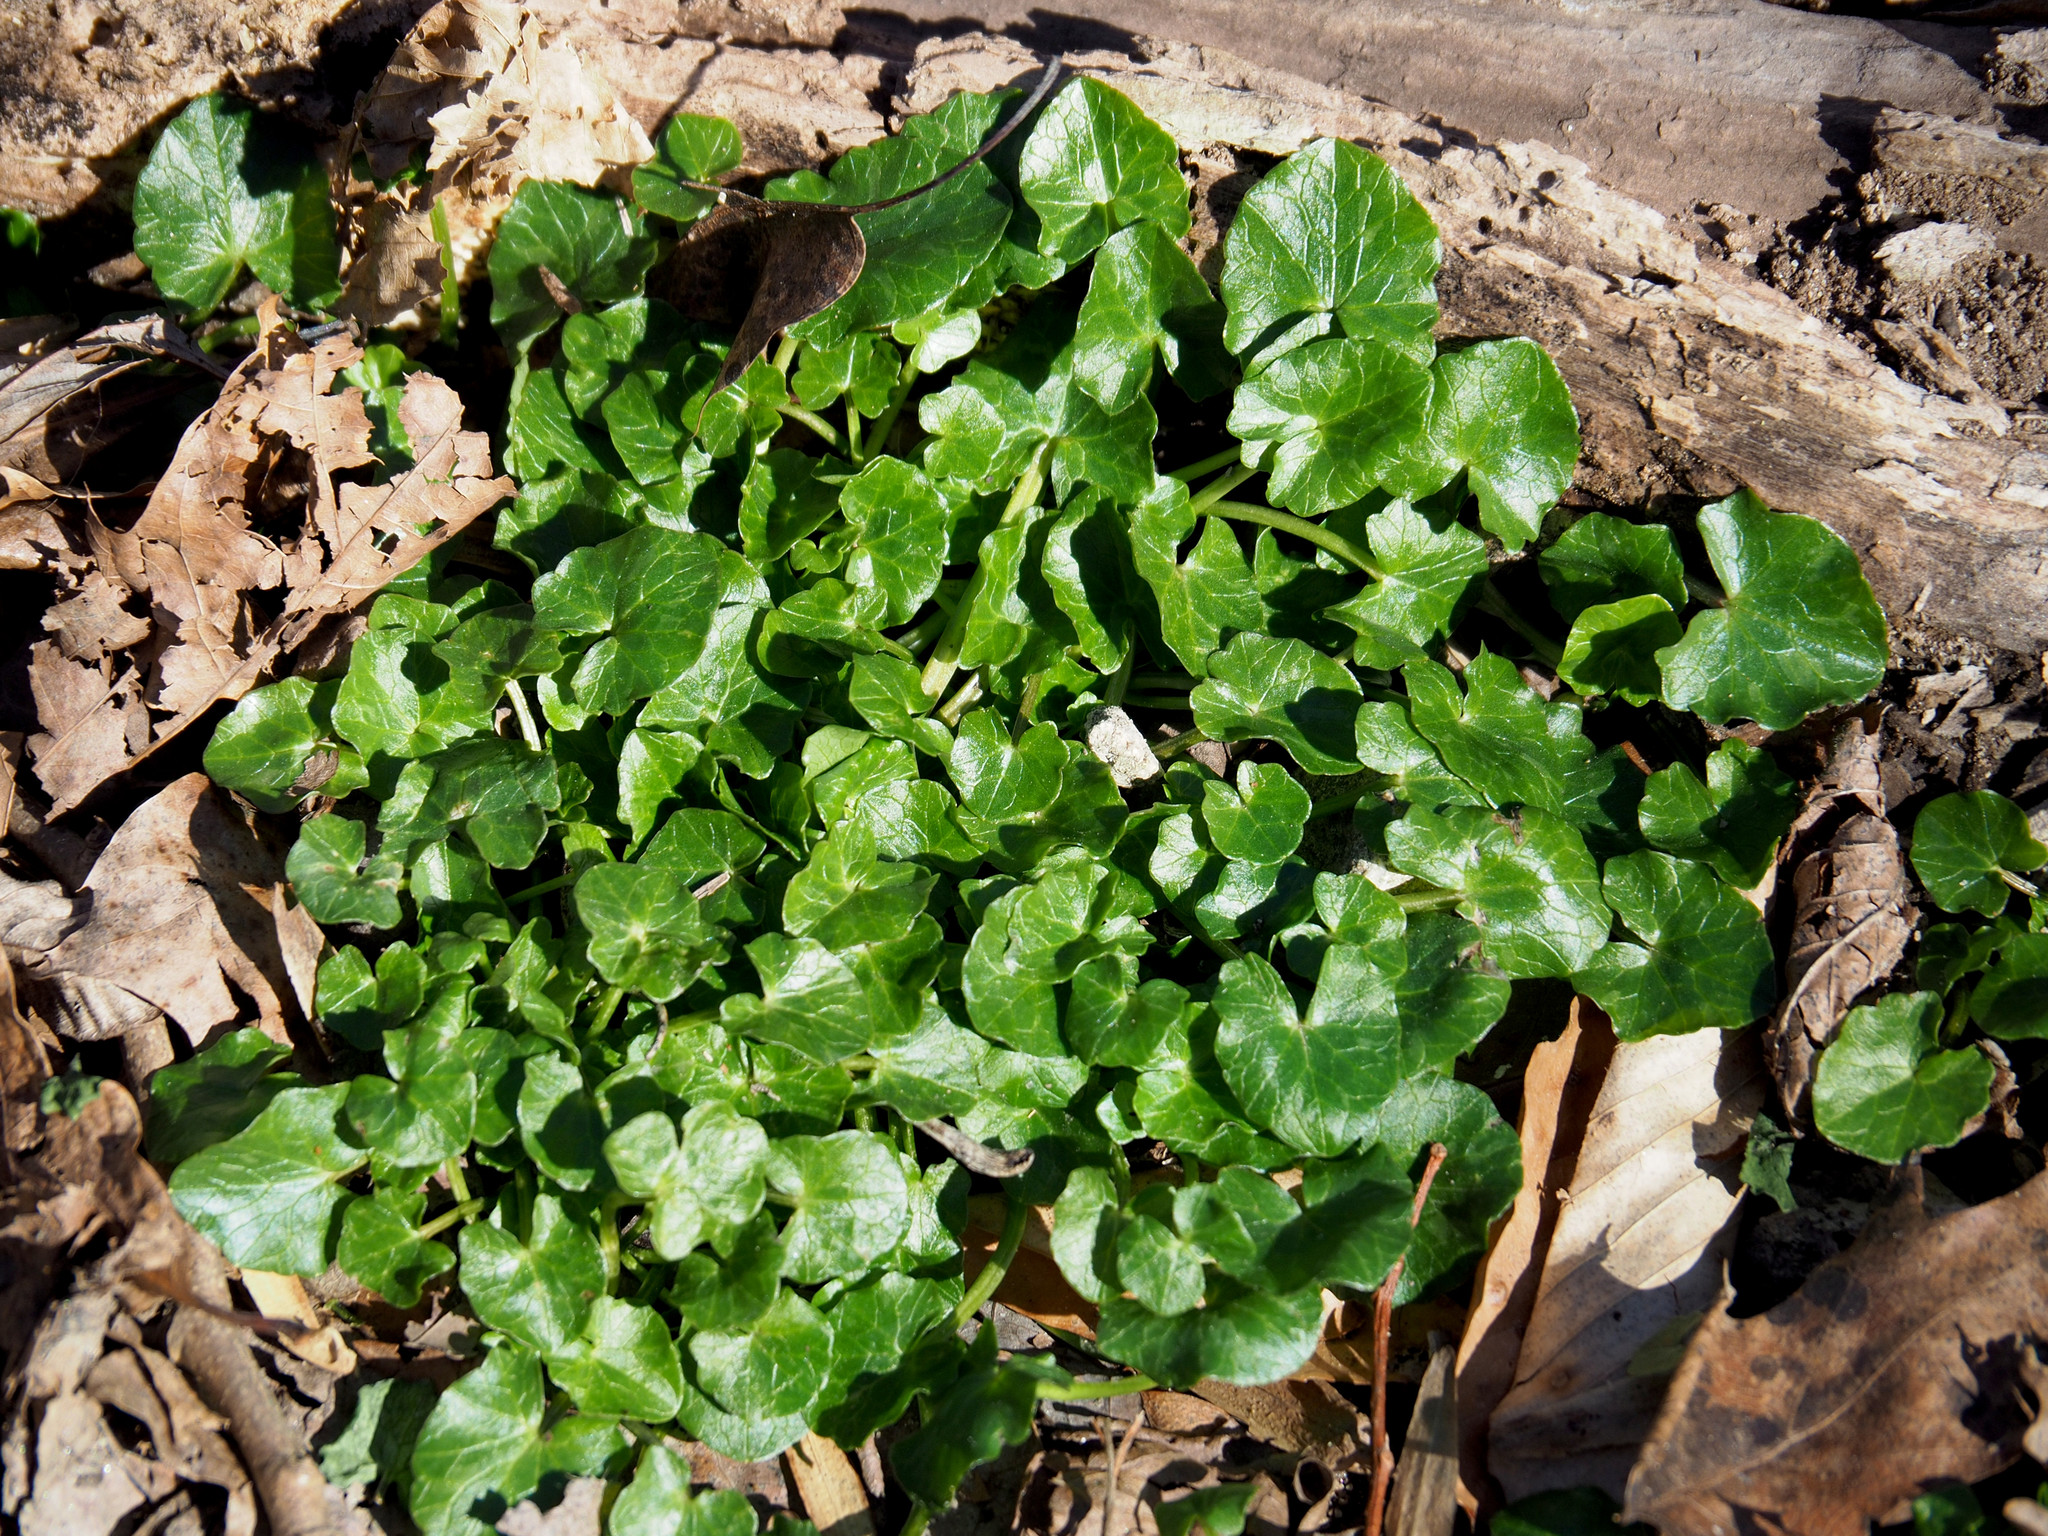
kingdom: Plantae
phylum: Tracheophyta
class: Magnoliopsida
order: Ranunculales
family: Ranunculaceae
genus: Ficaria
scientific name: Ficaria verna
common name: Lesser celandine
